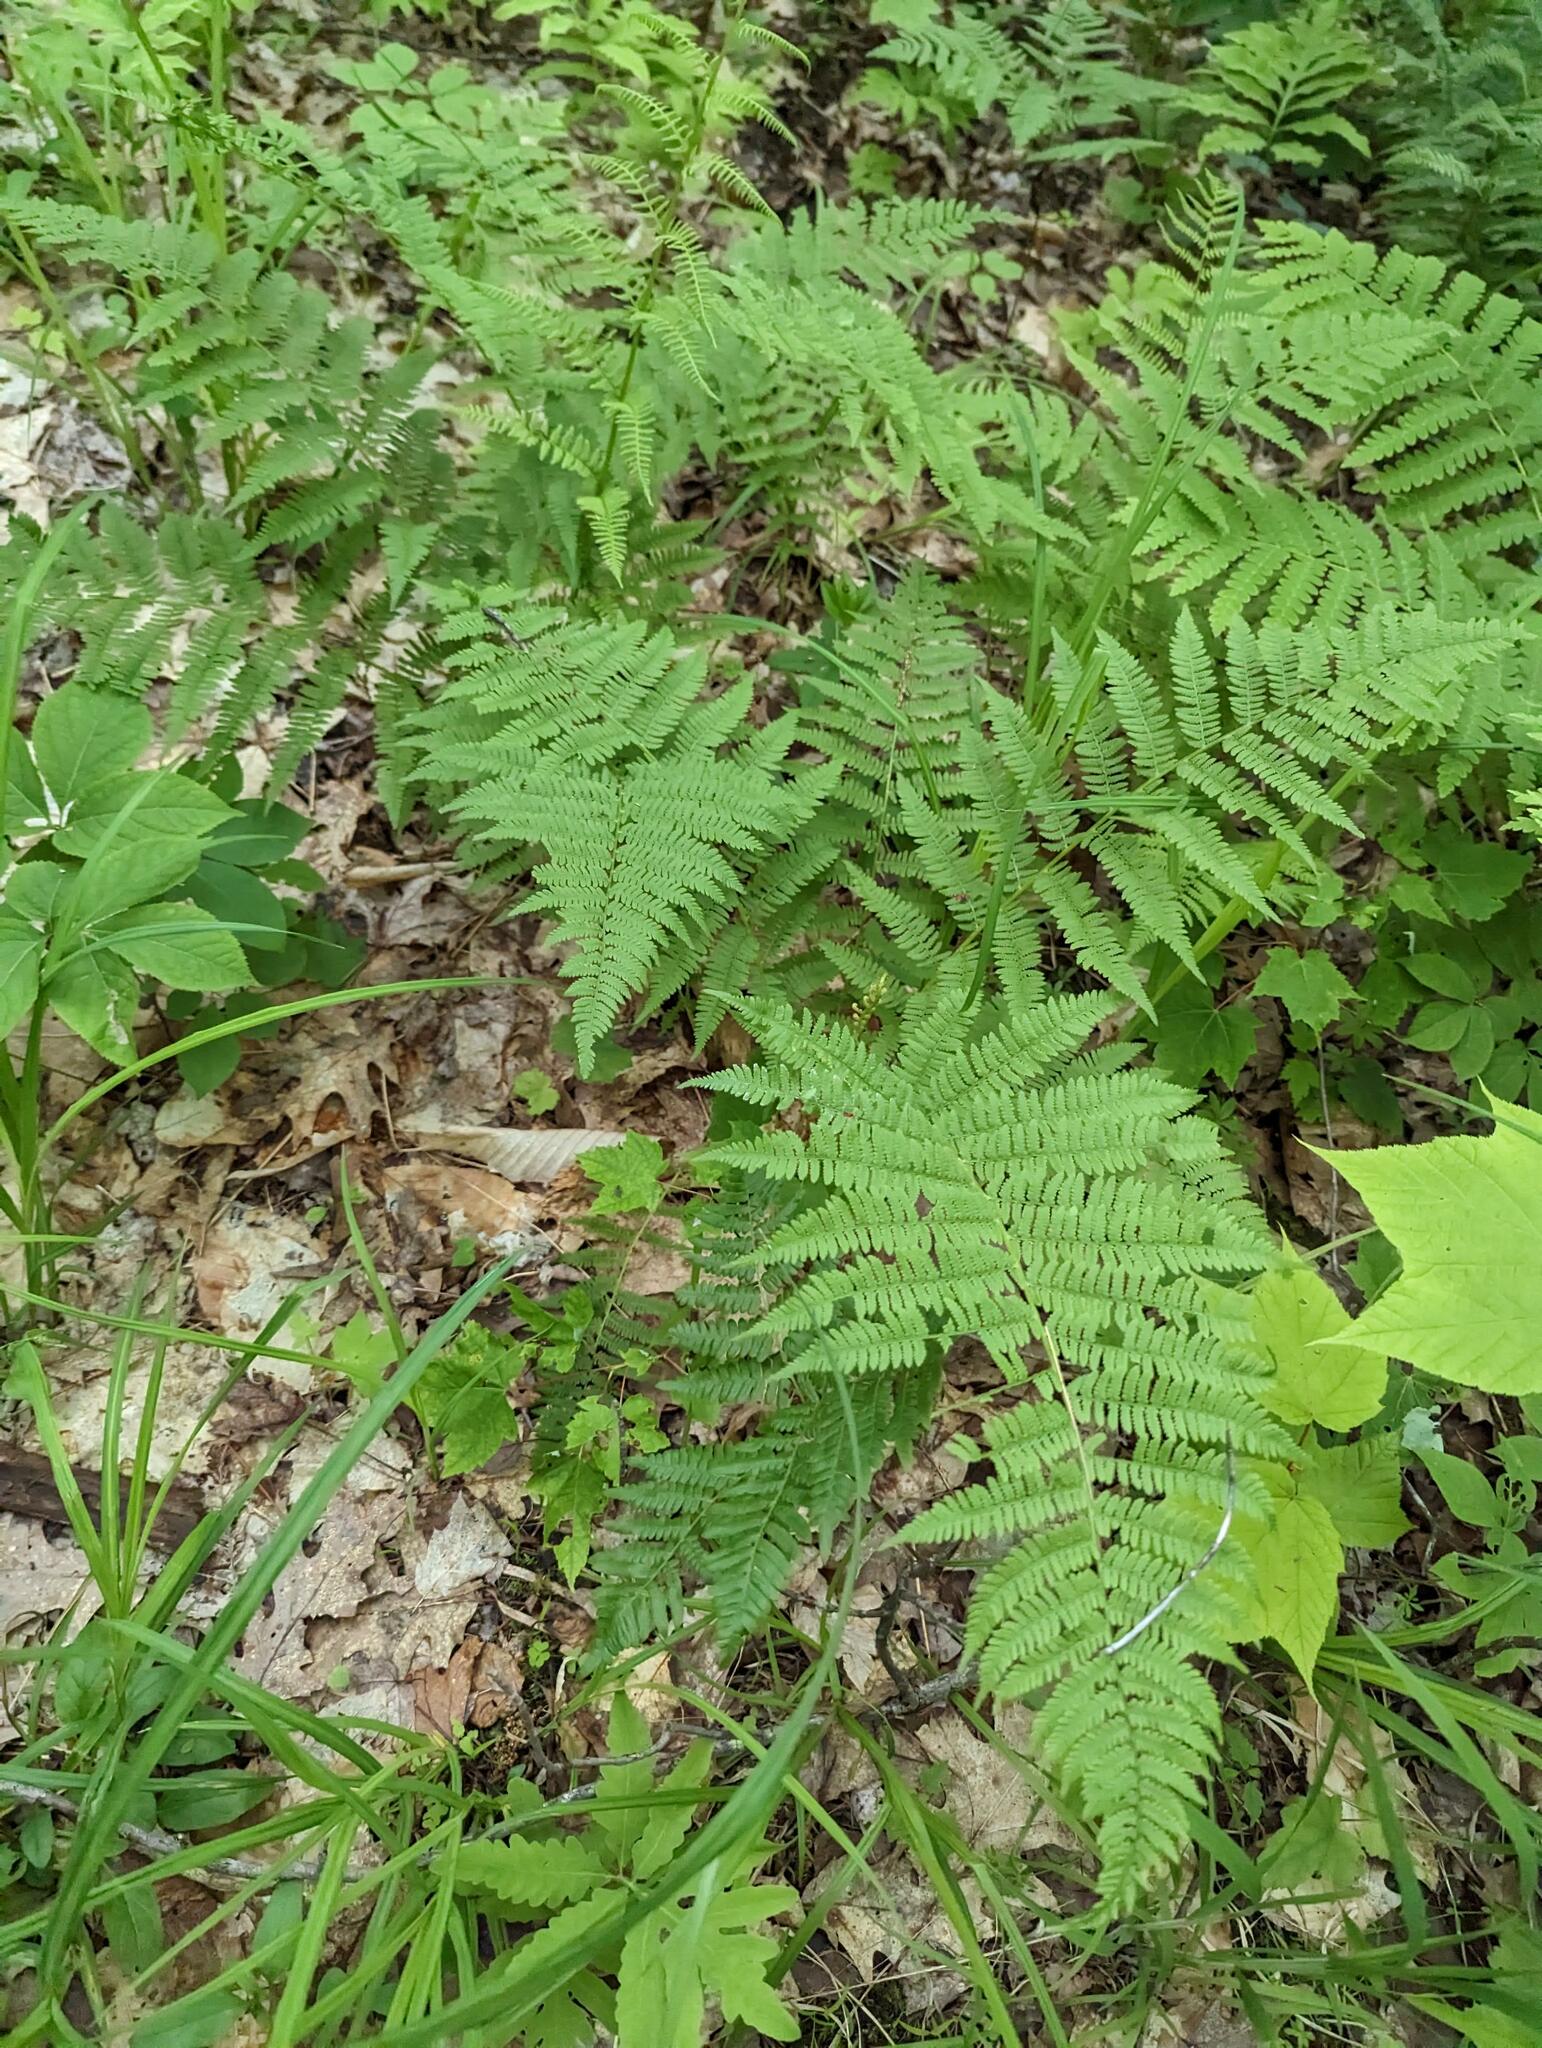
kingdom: Plantae
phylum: Tracheophyta
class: Polypodiopsida
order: Polypodiales
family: Athyriaceae
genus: Athyrium
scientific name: Athyrium angustum
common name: Northern lady fern
